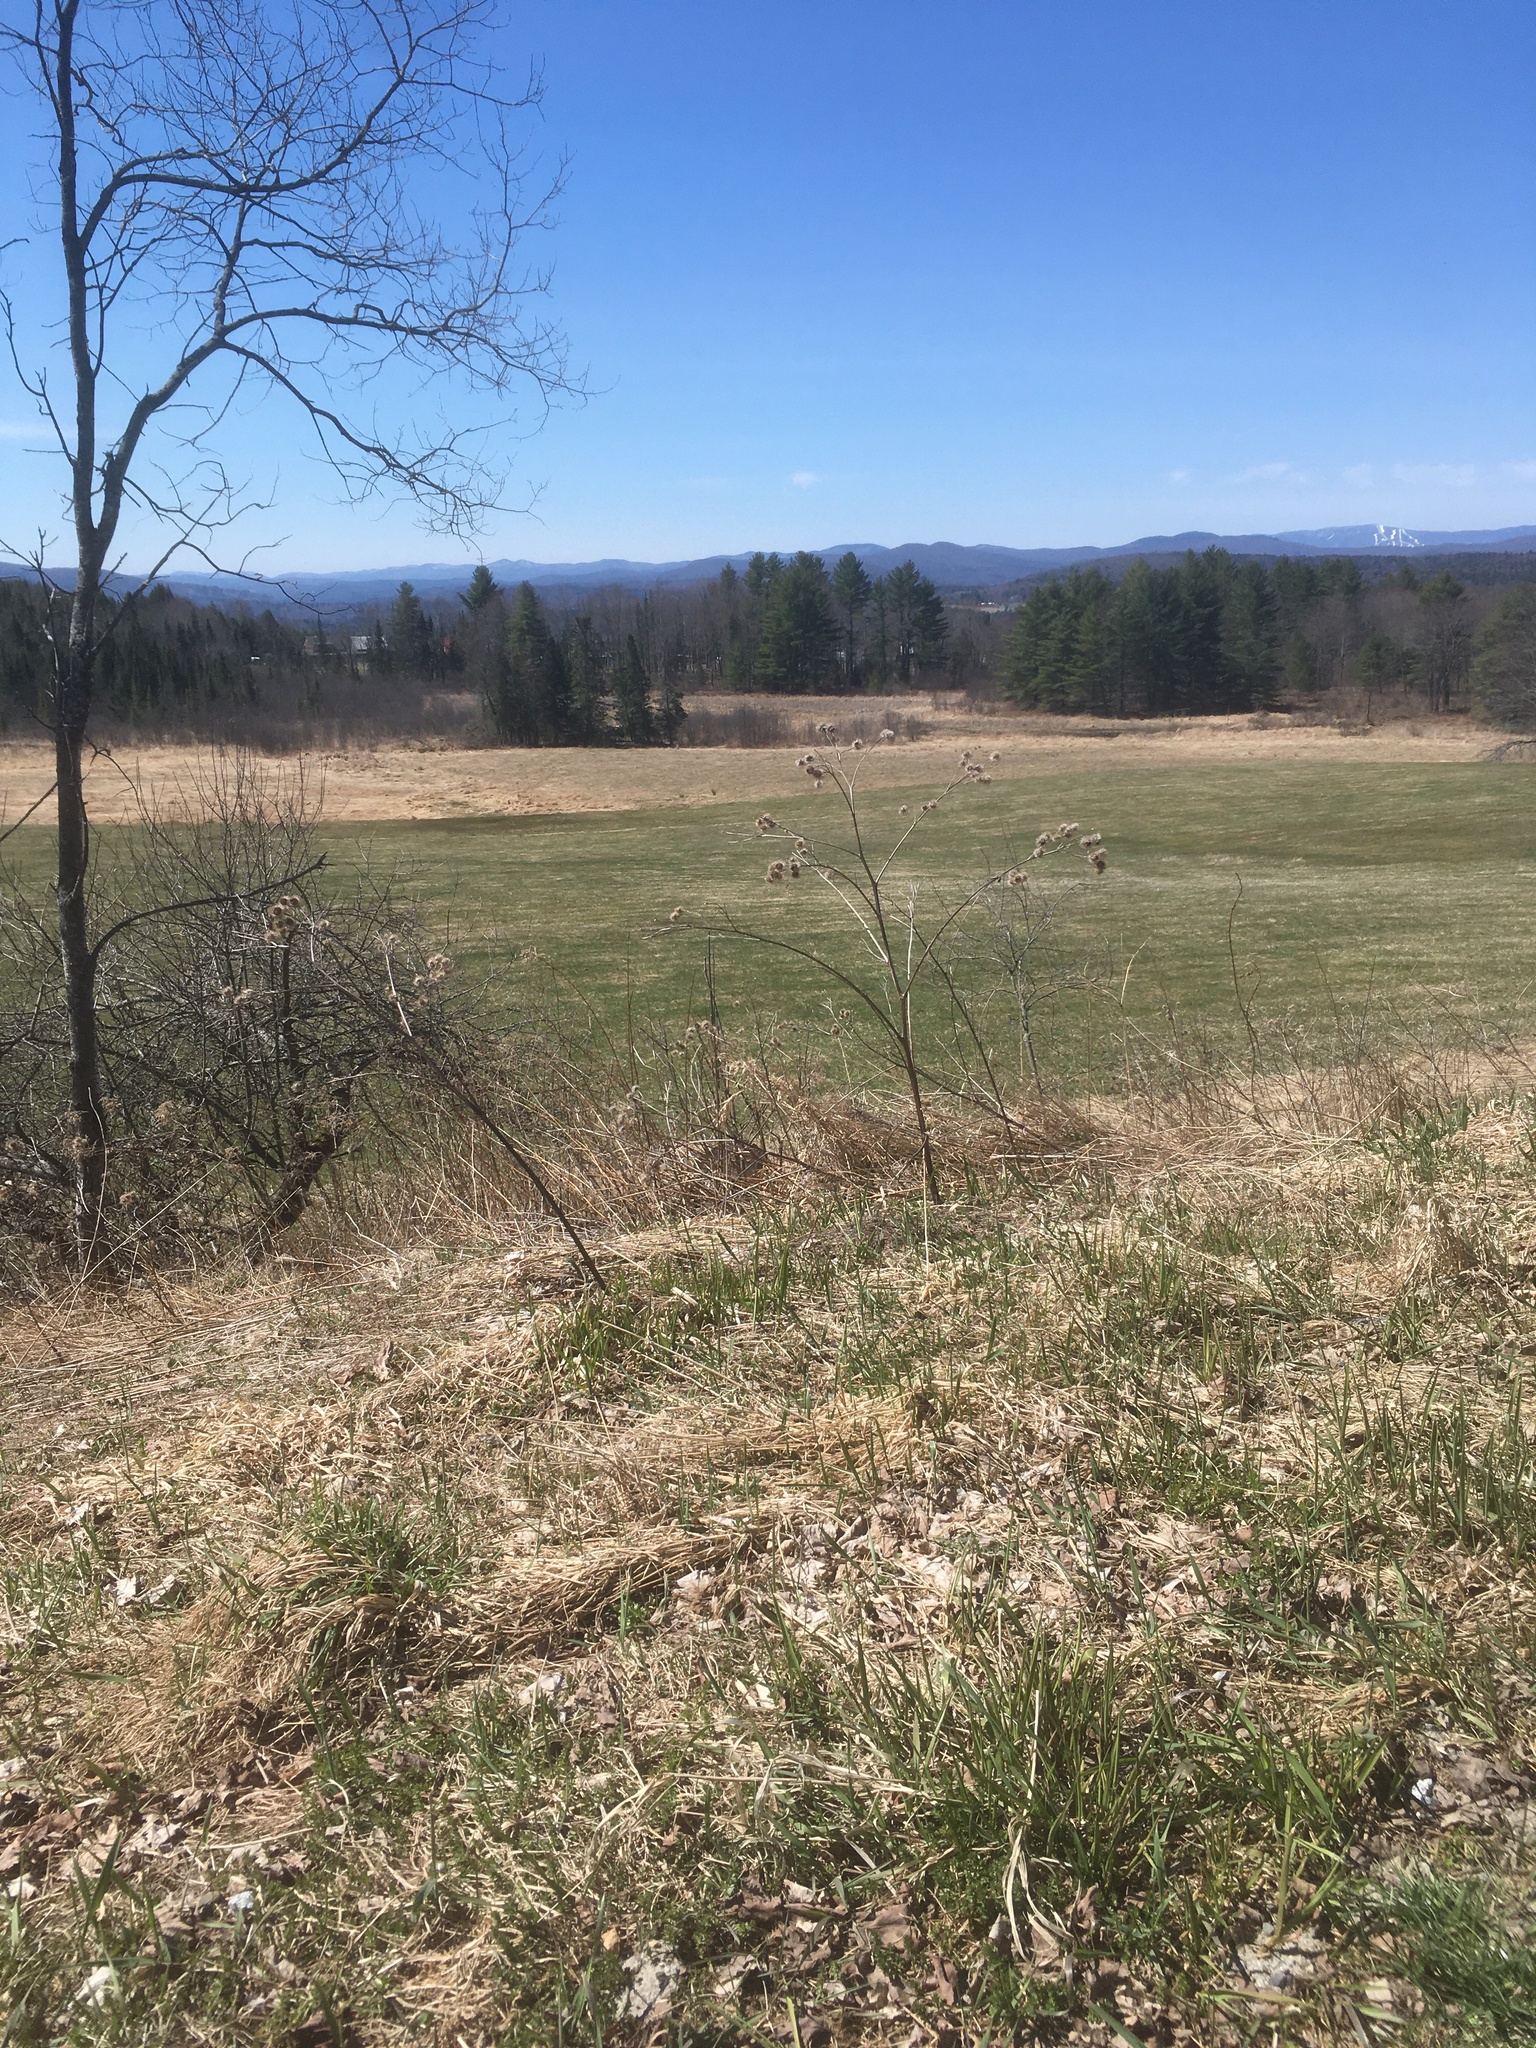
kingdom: Plantae
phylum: Tracheophyta
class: Magnoliopsida
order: Asterales
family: Asteraceae
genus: Arctium
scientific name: Arctium lappa
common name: Greater burdock
